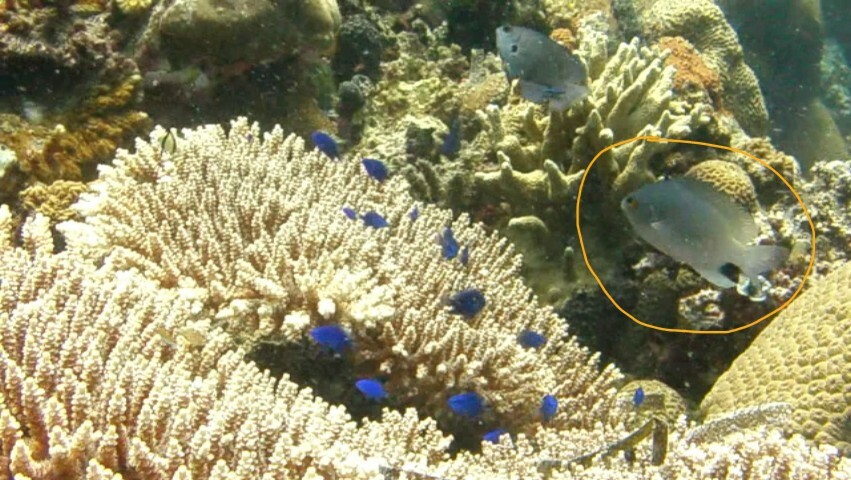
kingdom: Animalia
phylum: Chordata
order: Perciformes
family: Pomacentridae
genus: Pomacentrus
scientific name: Pomacentrus stigma
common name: Blackspot damsel
